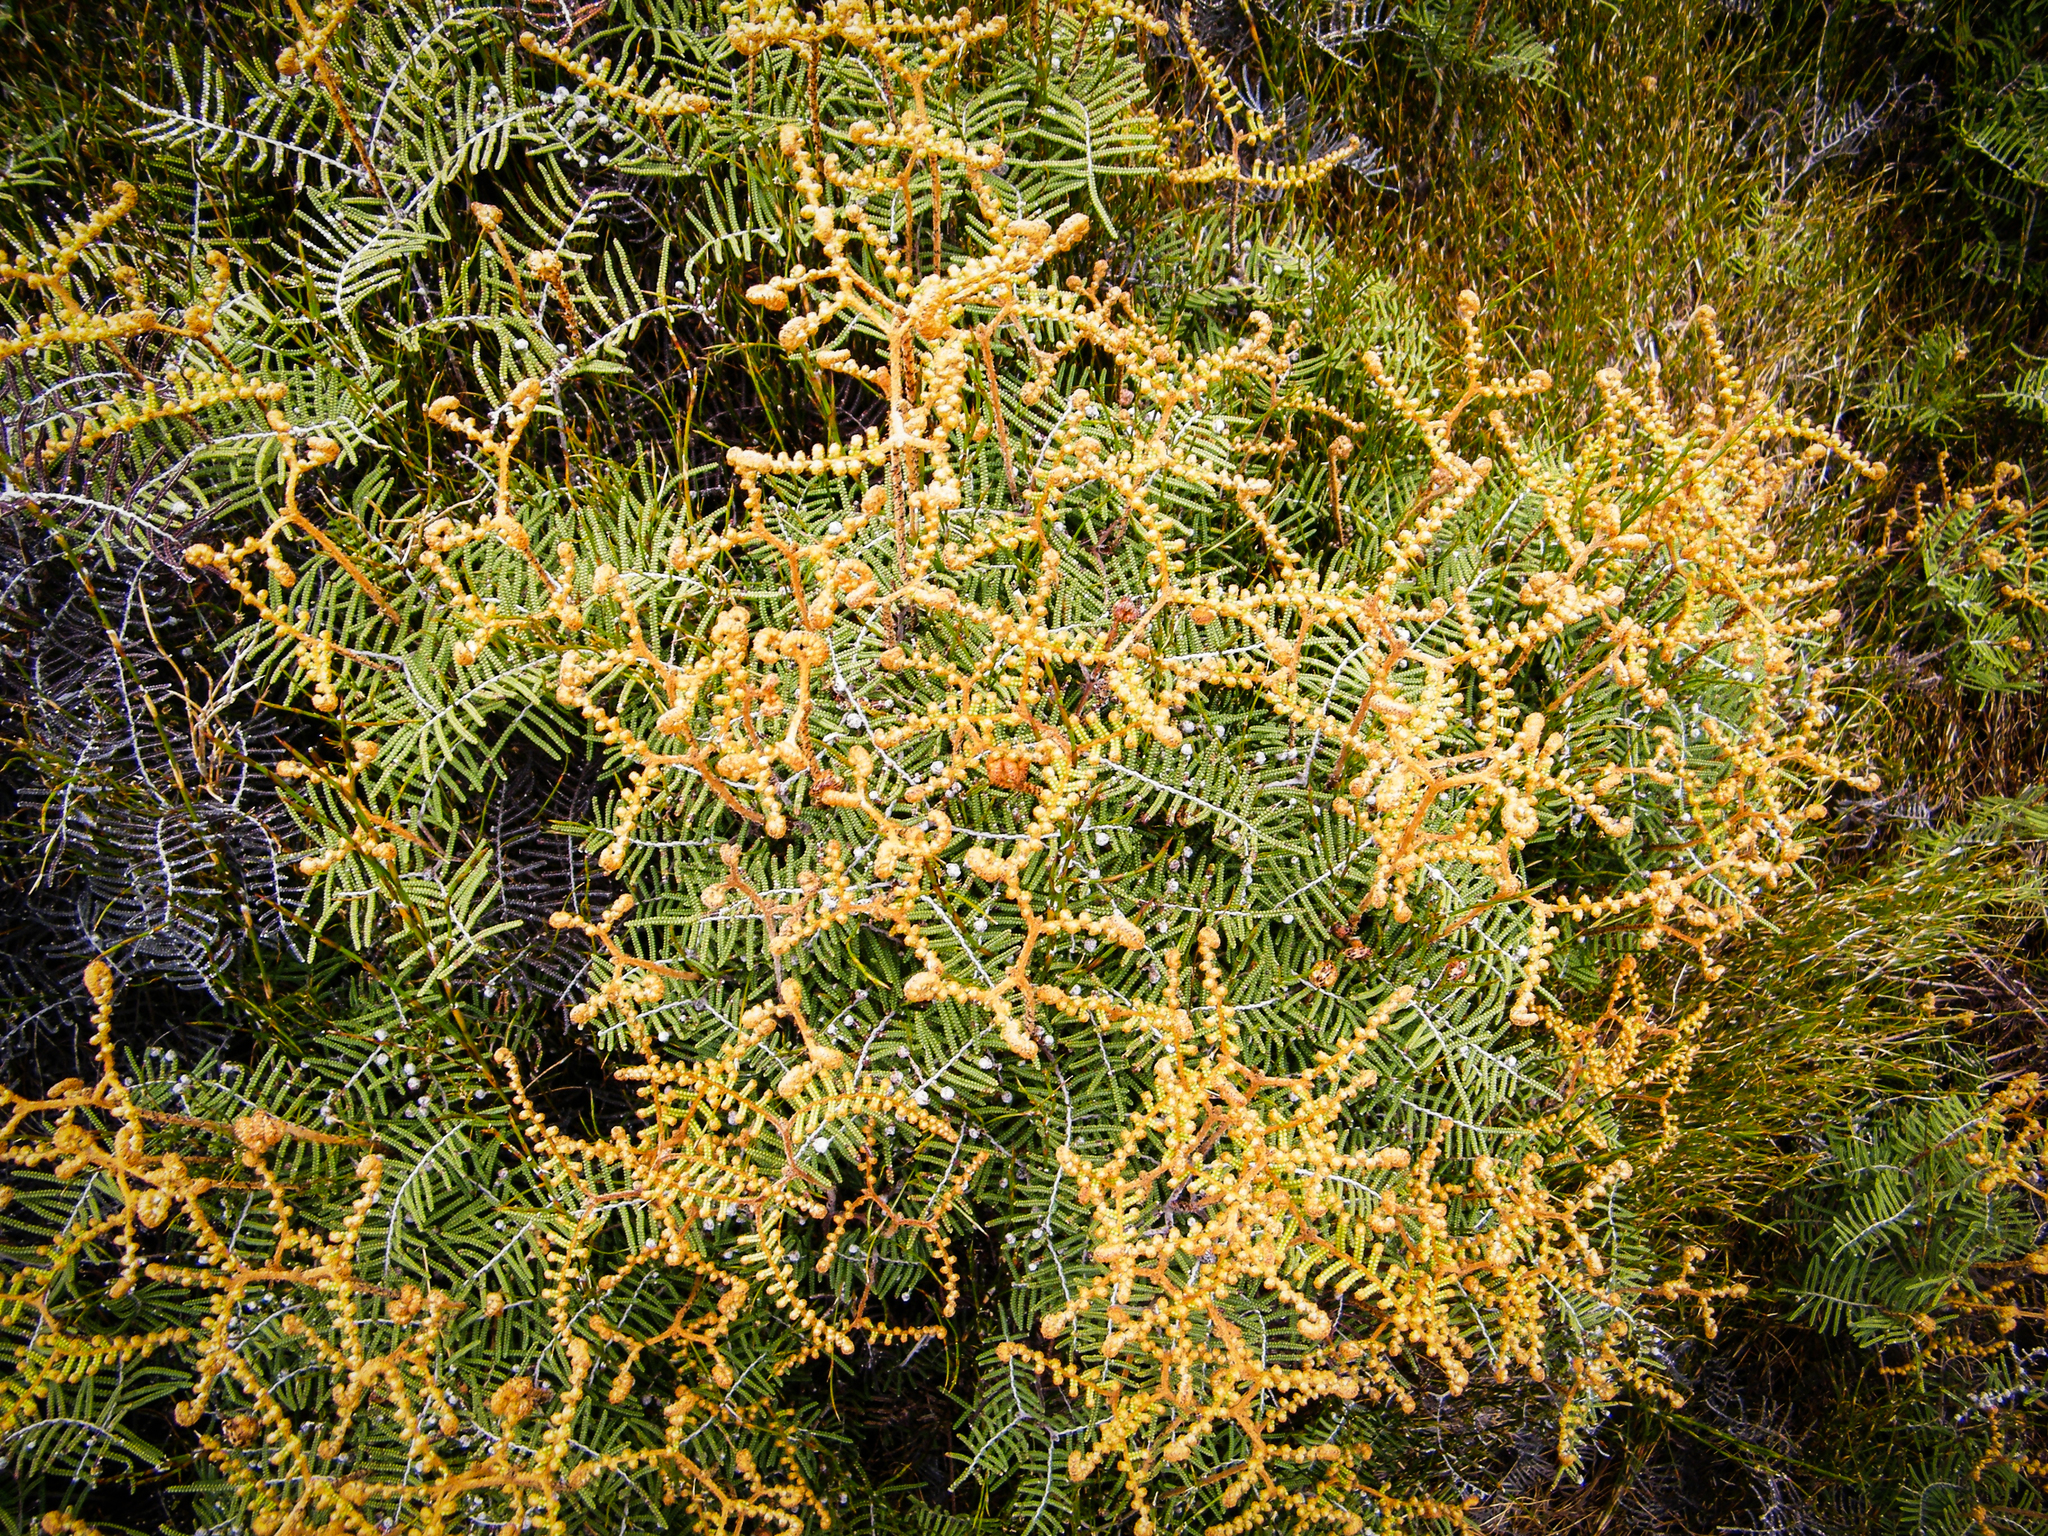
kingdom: Plantae
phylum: Tracheophyta
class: Polypodiopsida
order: Gleicheniales
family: Gleicheniaceae
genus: Gleichenia
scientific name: Gleichenia alpina
